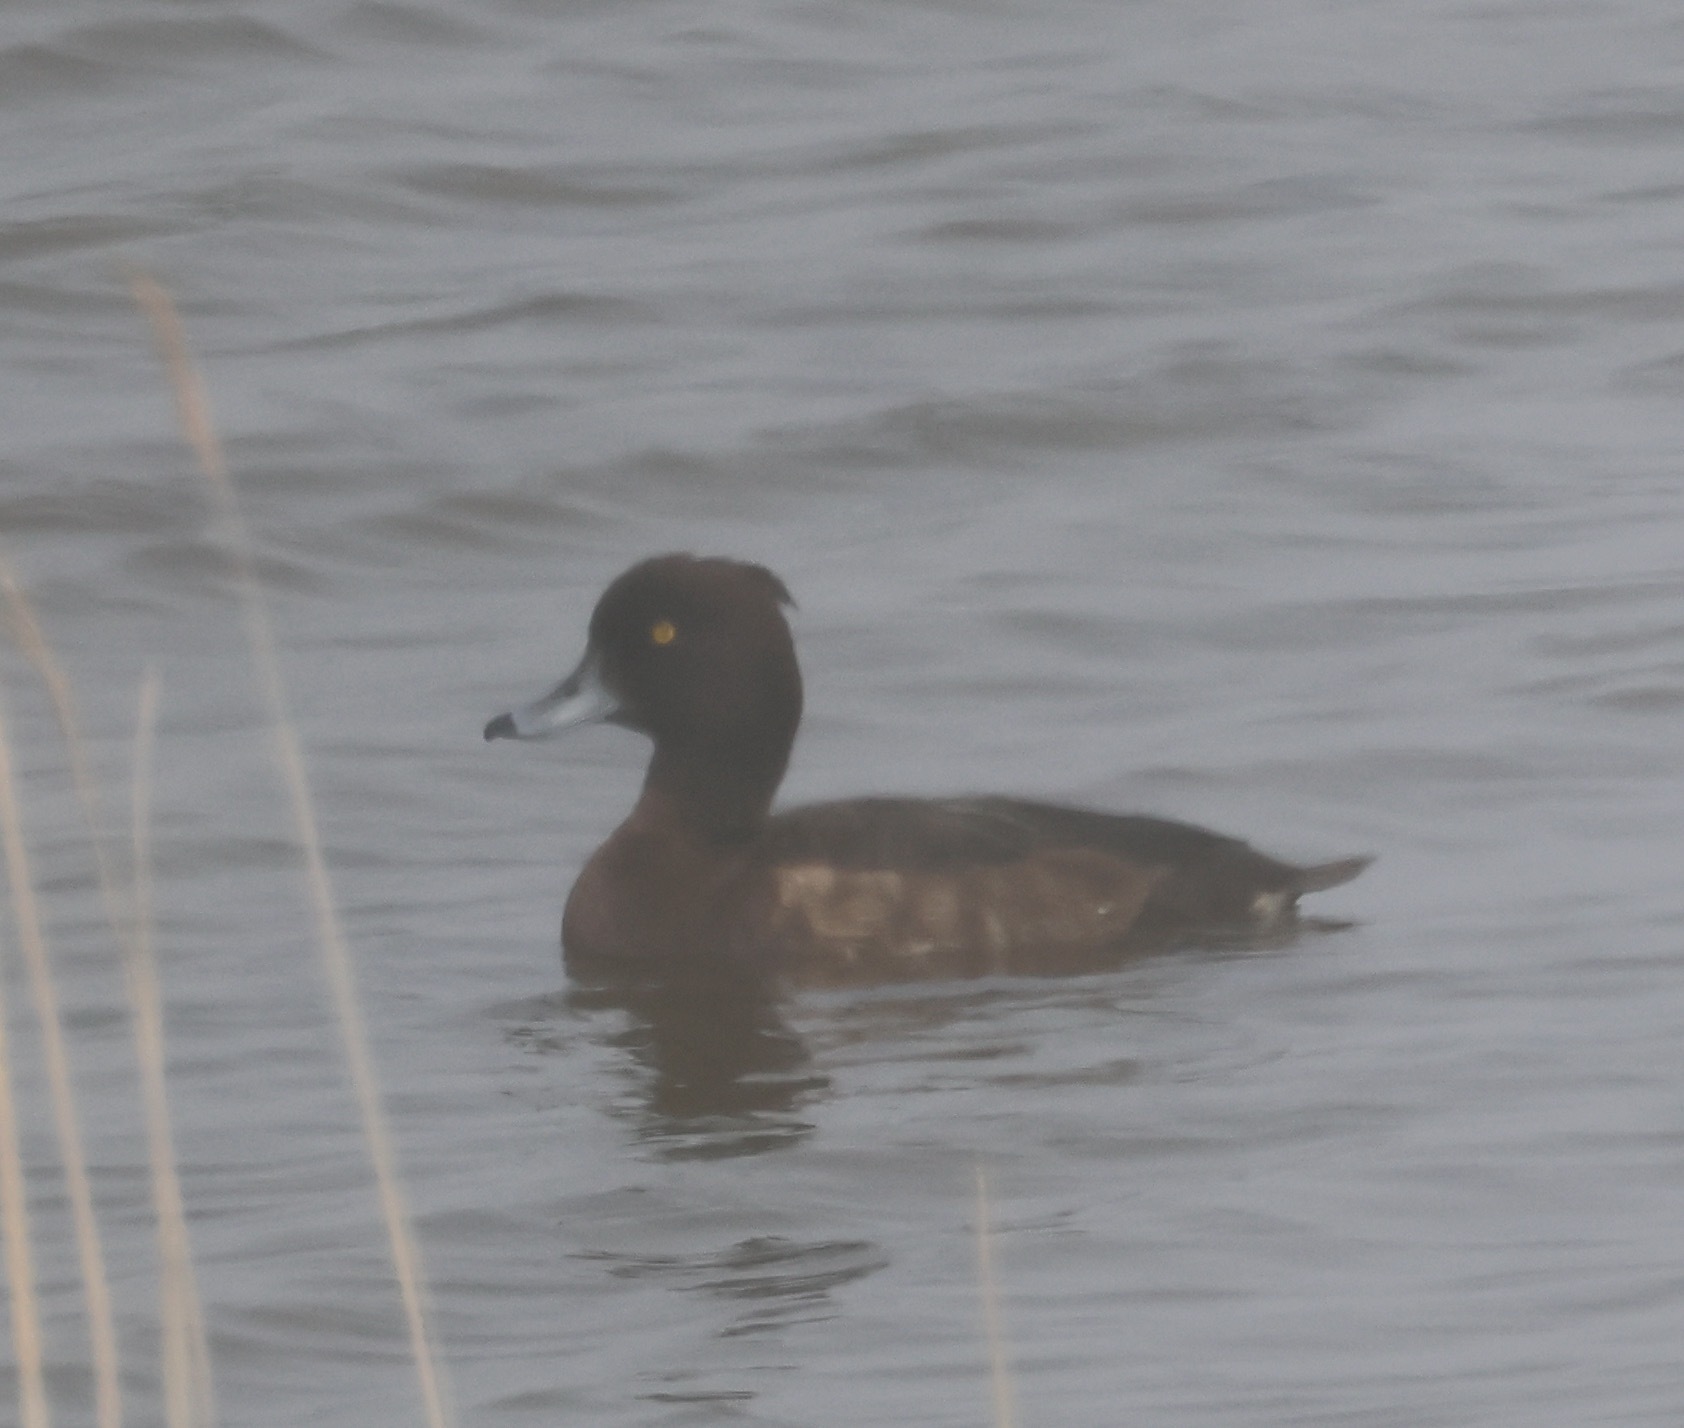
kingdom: Animalia
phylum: Chordata
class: Aves
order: Anseriformes
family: Anatidae
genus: Aythya
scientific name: Aythya fuligula
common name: Tufted duck
